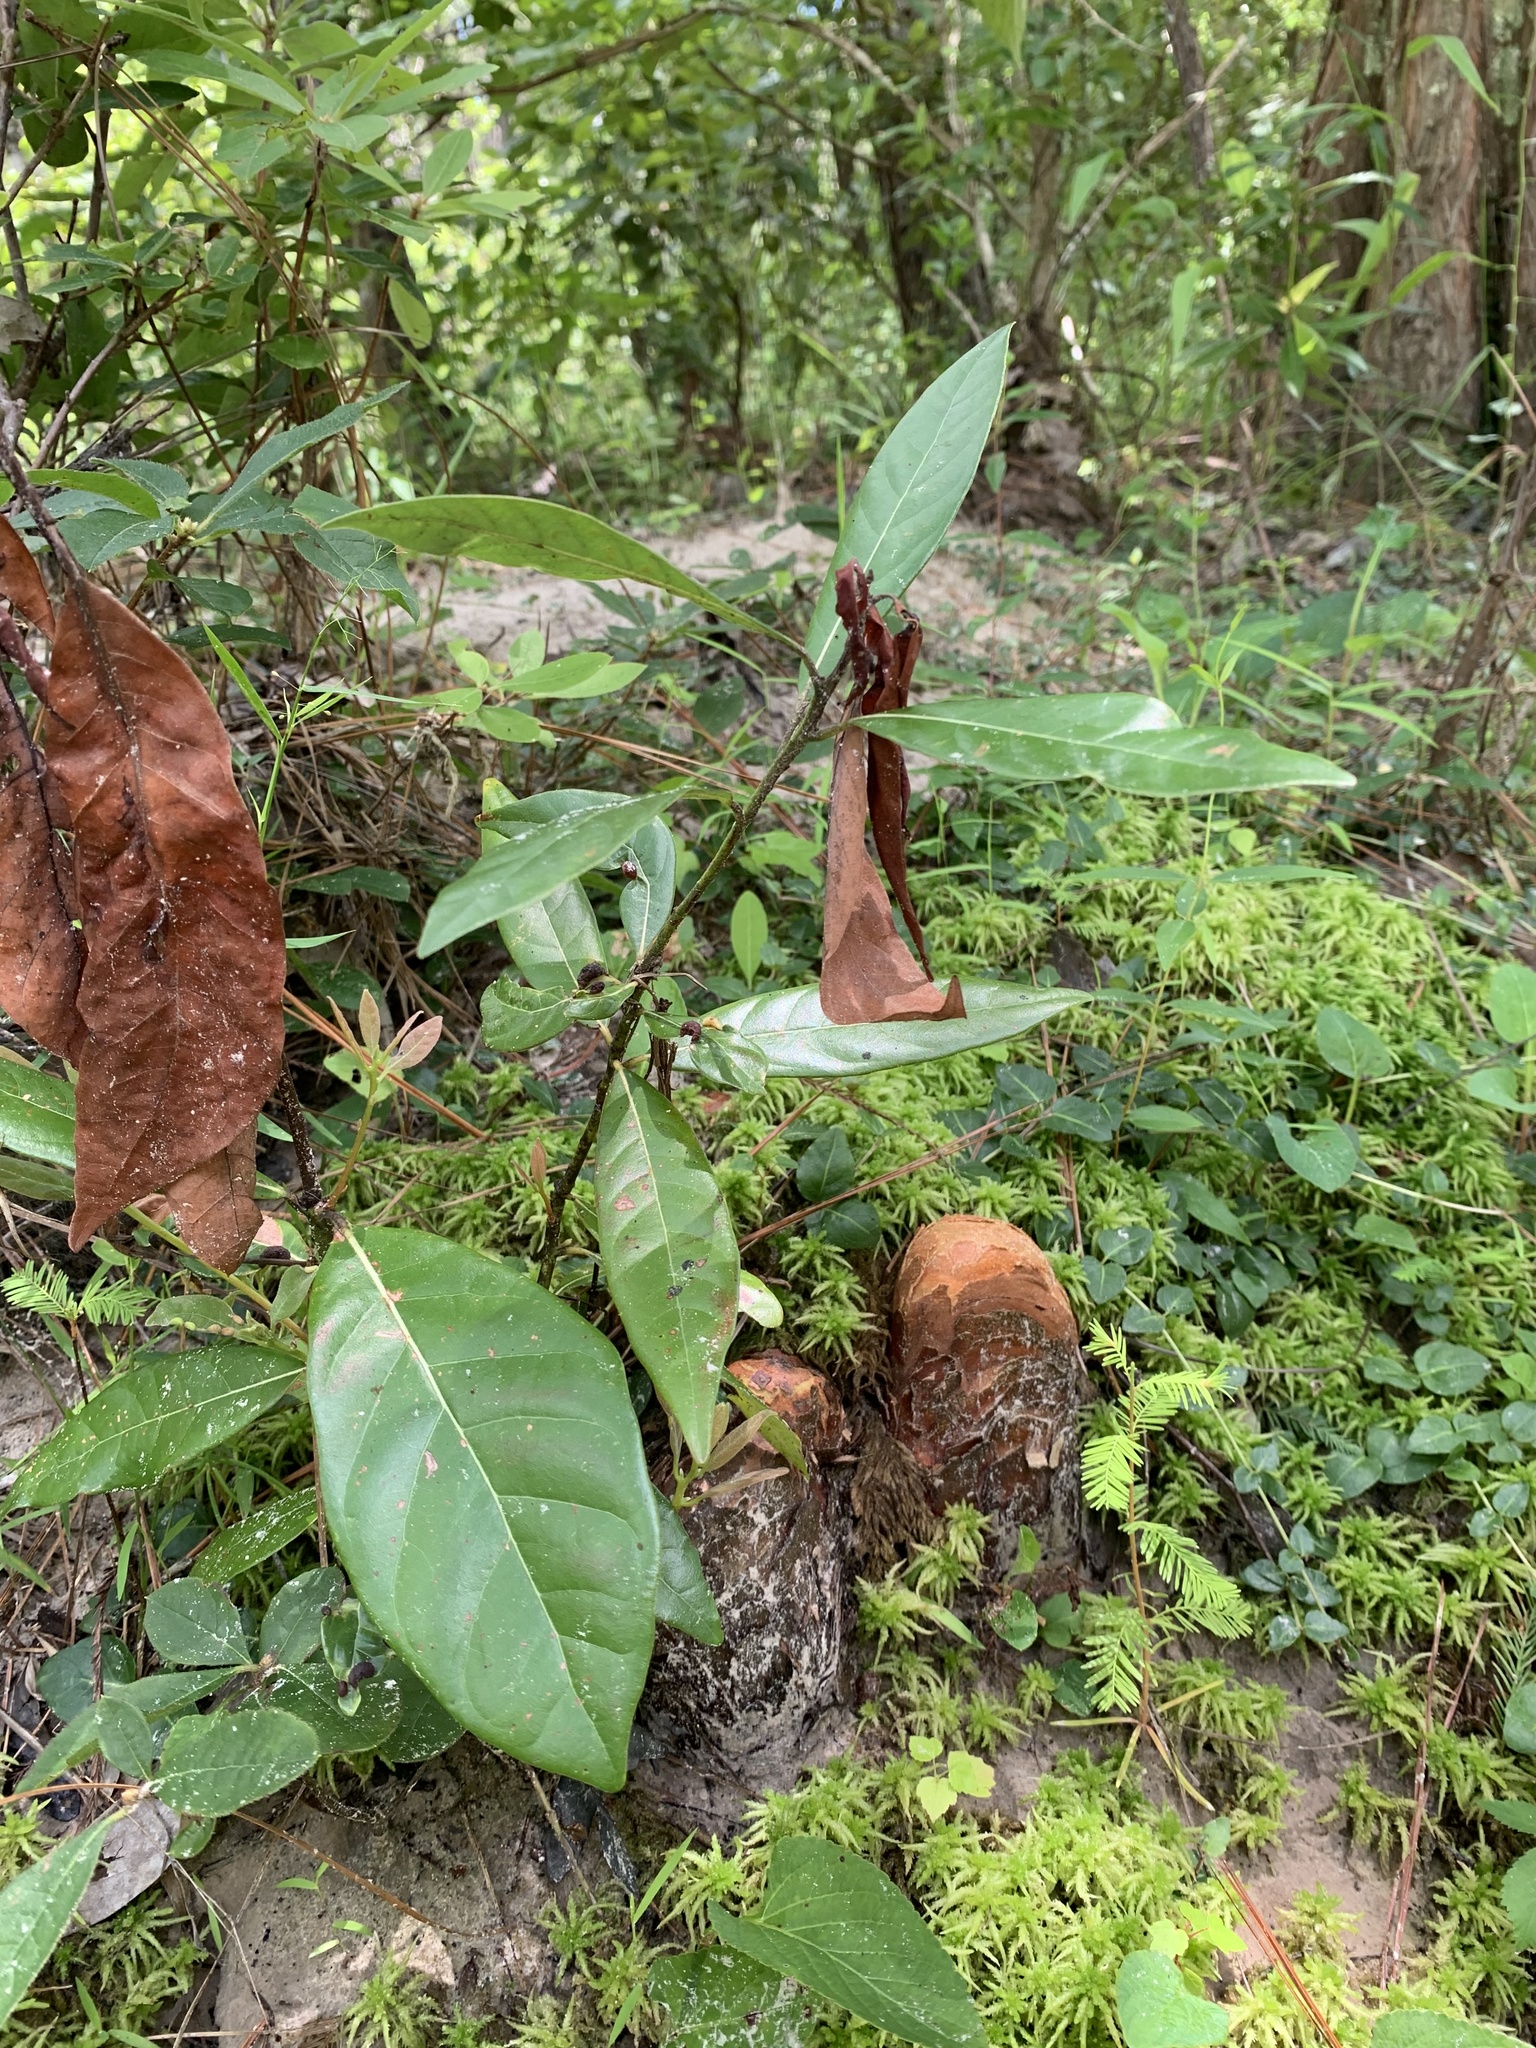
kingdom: Plantae
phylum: Tracheophyta
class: Magnoliopsida
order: Laurales
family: Lauraceae
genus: Persea
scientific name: Persea palustris
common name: Swampbay
